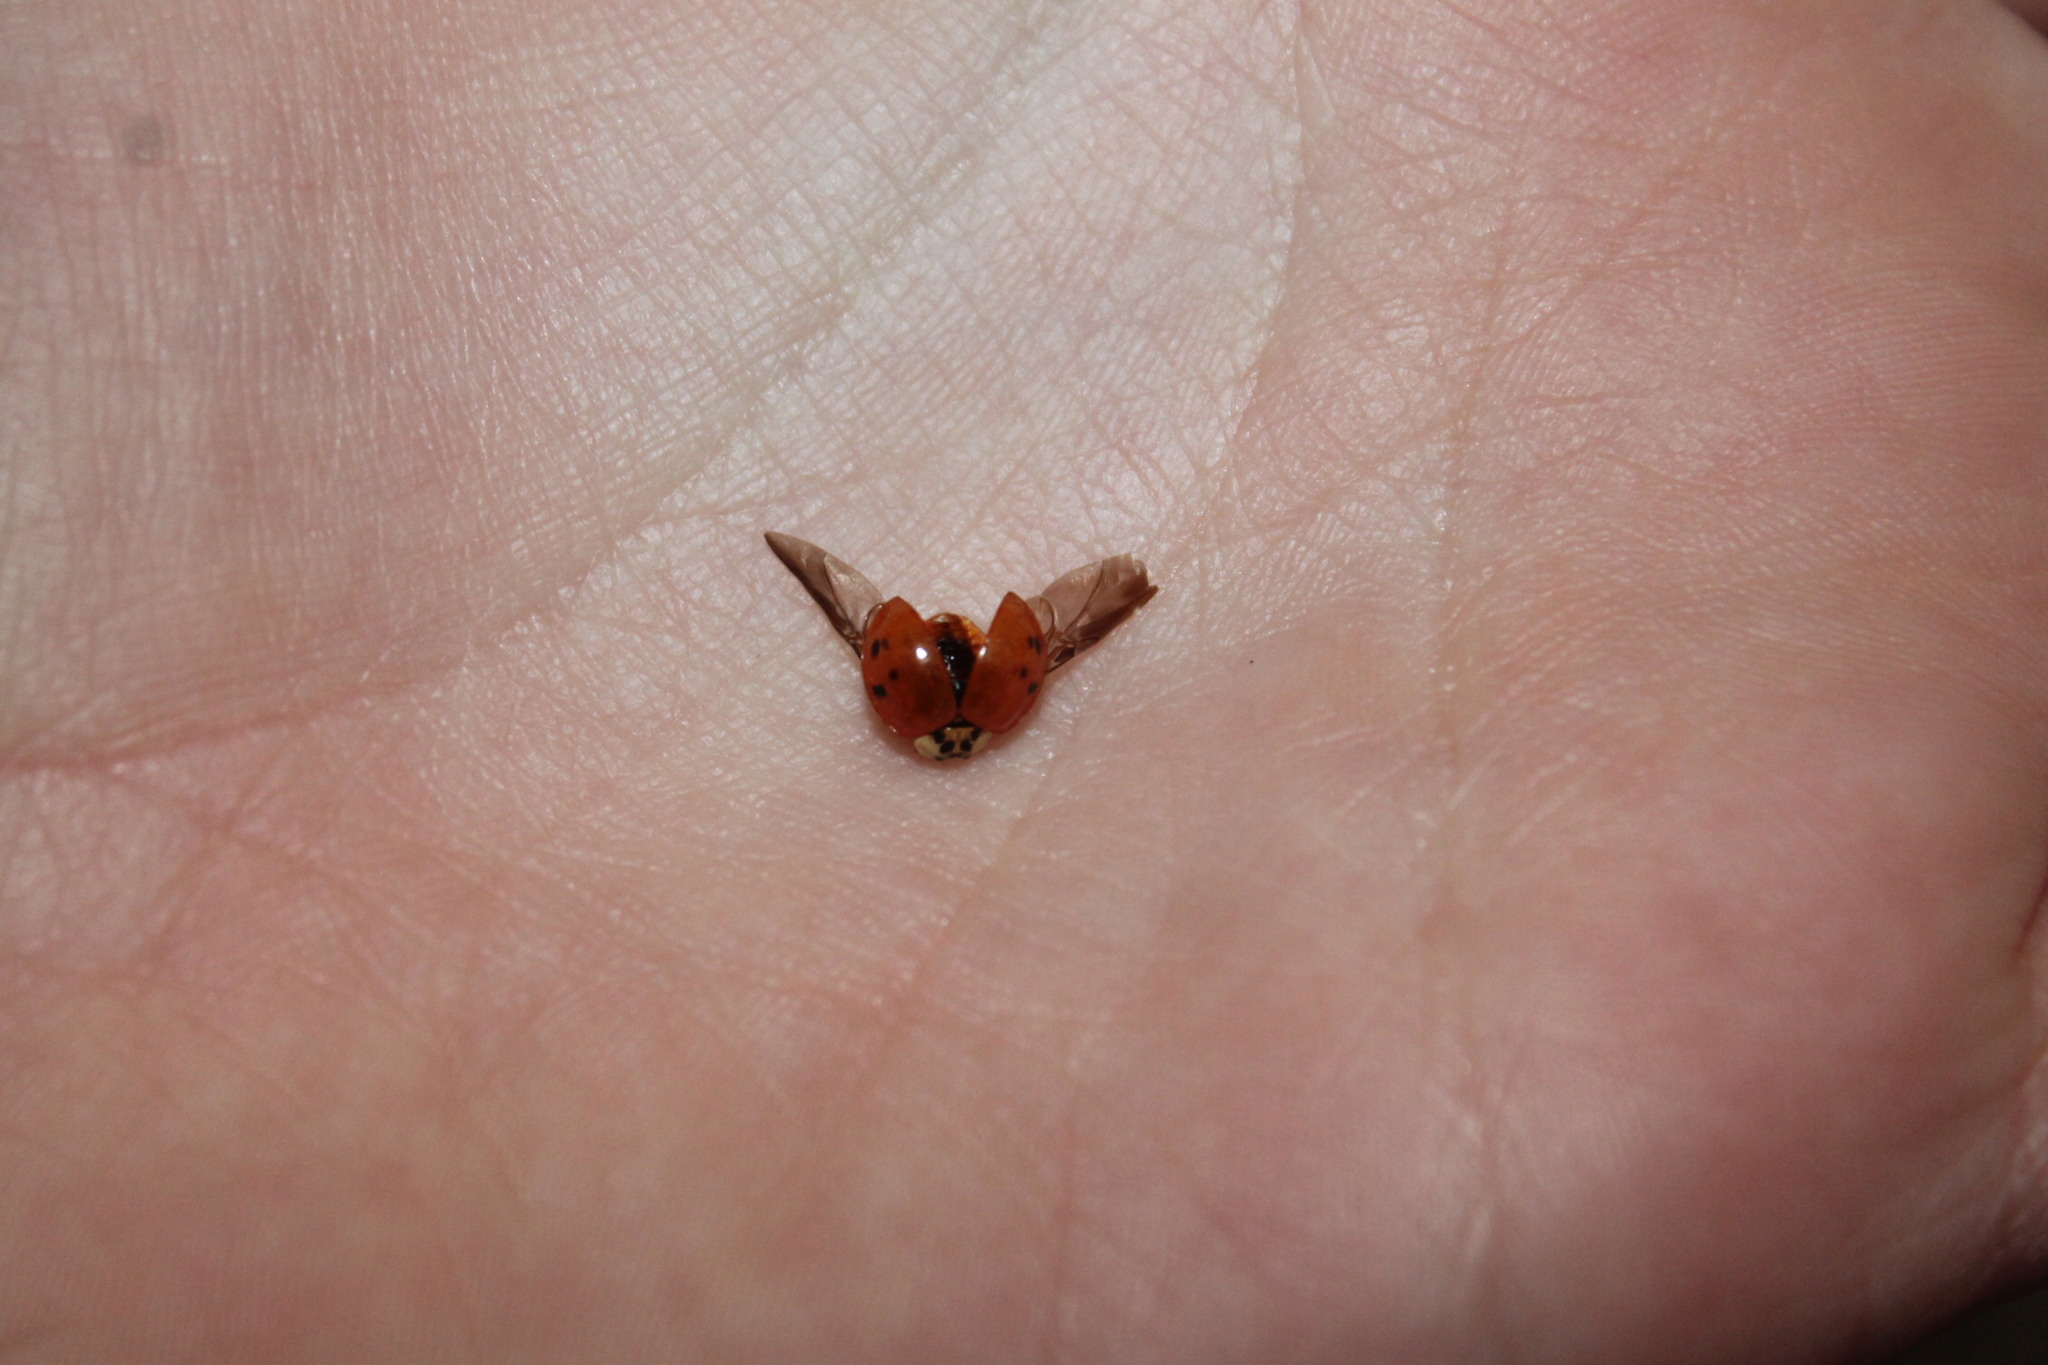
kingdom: Animalia
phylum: Arthropoda
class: Insecta
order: Coleoptera
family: Coccinellidae
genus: Harmonia
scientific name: Harmonia axyridis
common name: Harlequin ladybird
